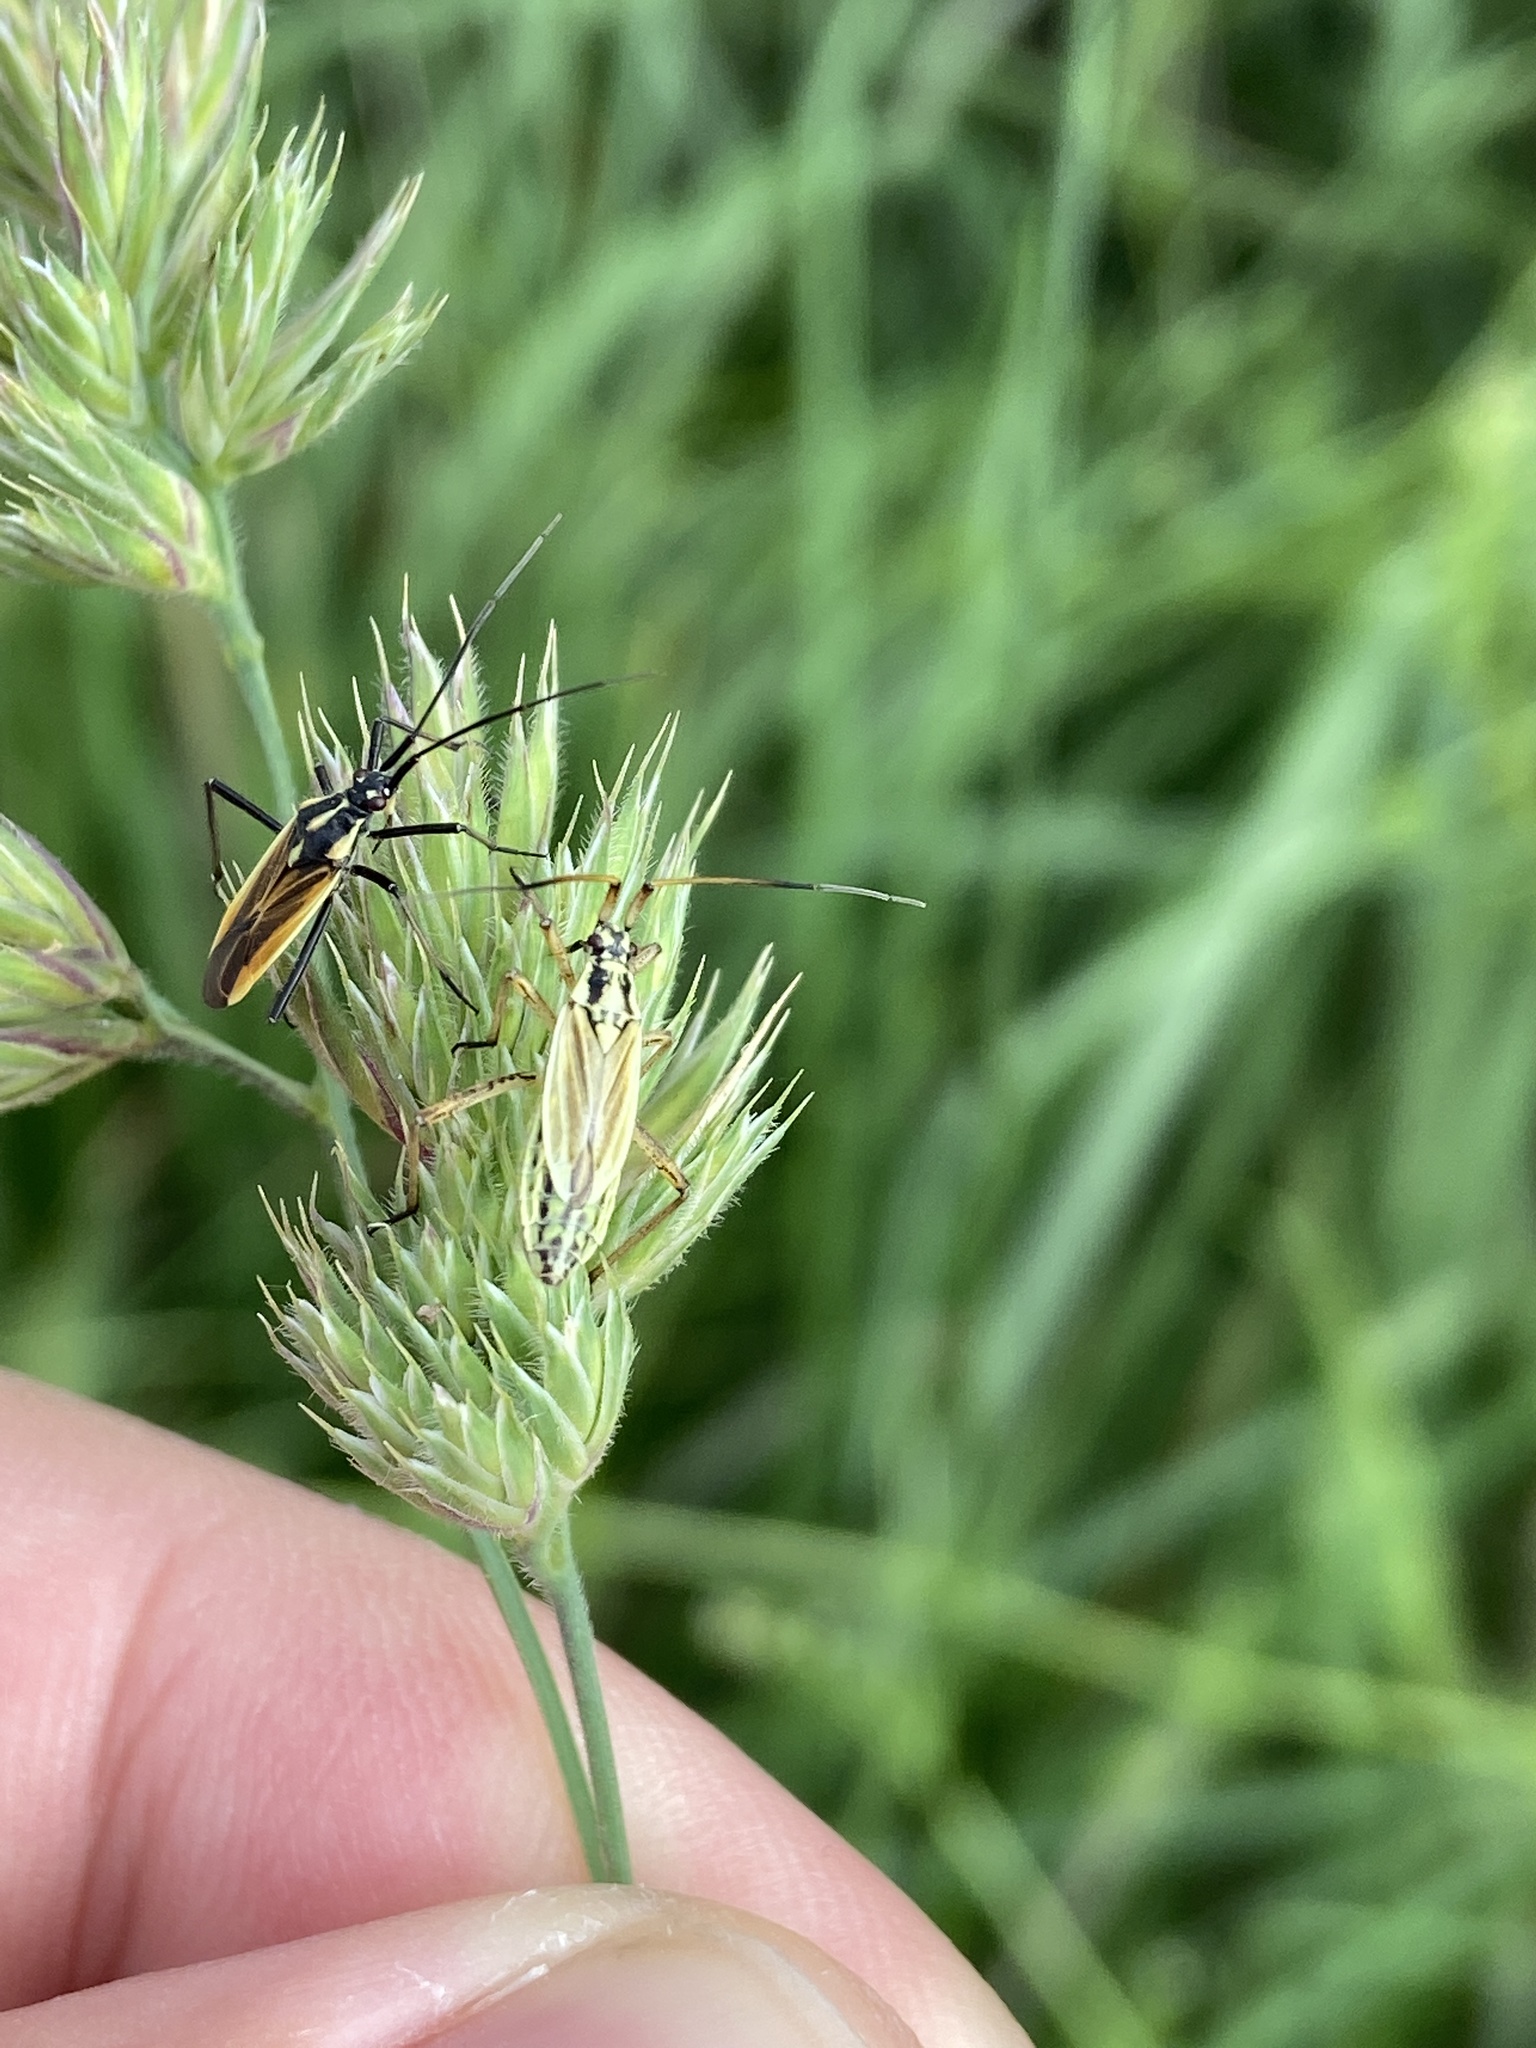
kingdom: Animalia
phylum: Arthropoda
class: Insecta
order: Hemiptera
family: Miridae
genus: Leptopterna
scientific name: Leptopterna dolabrata
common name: Meadow plant bug
